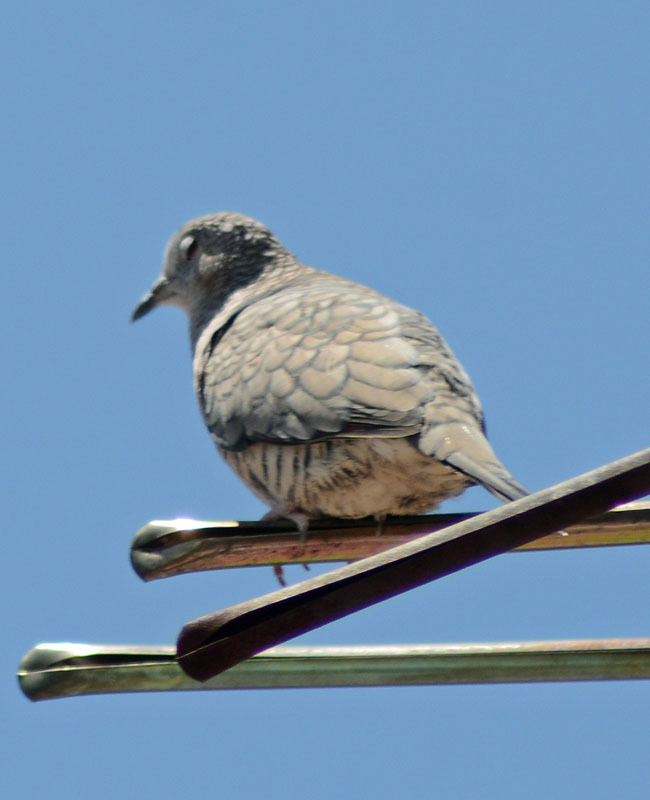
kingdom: Animalia
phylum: Chordata
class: Aves
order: Columbiformes
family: Columbidae
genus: Columbina
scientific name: Columbina inca
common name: Inca dove
